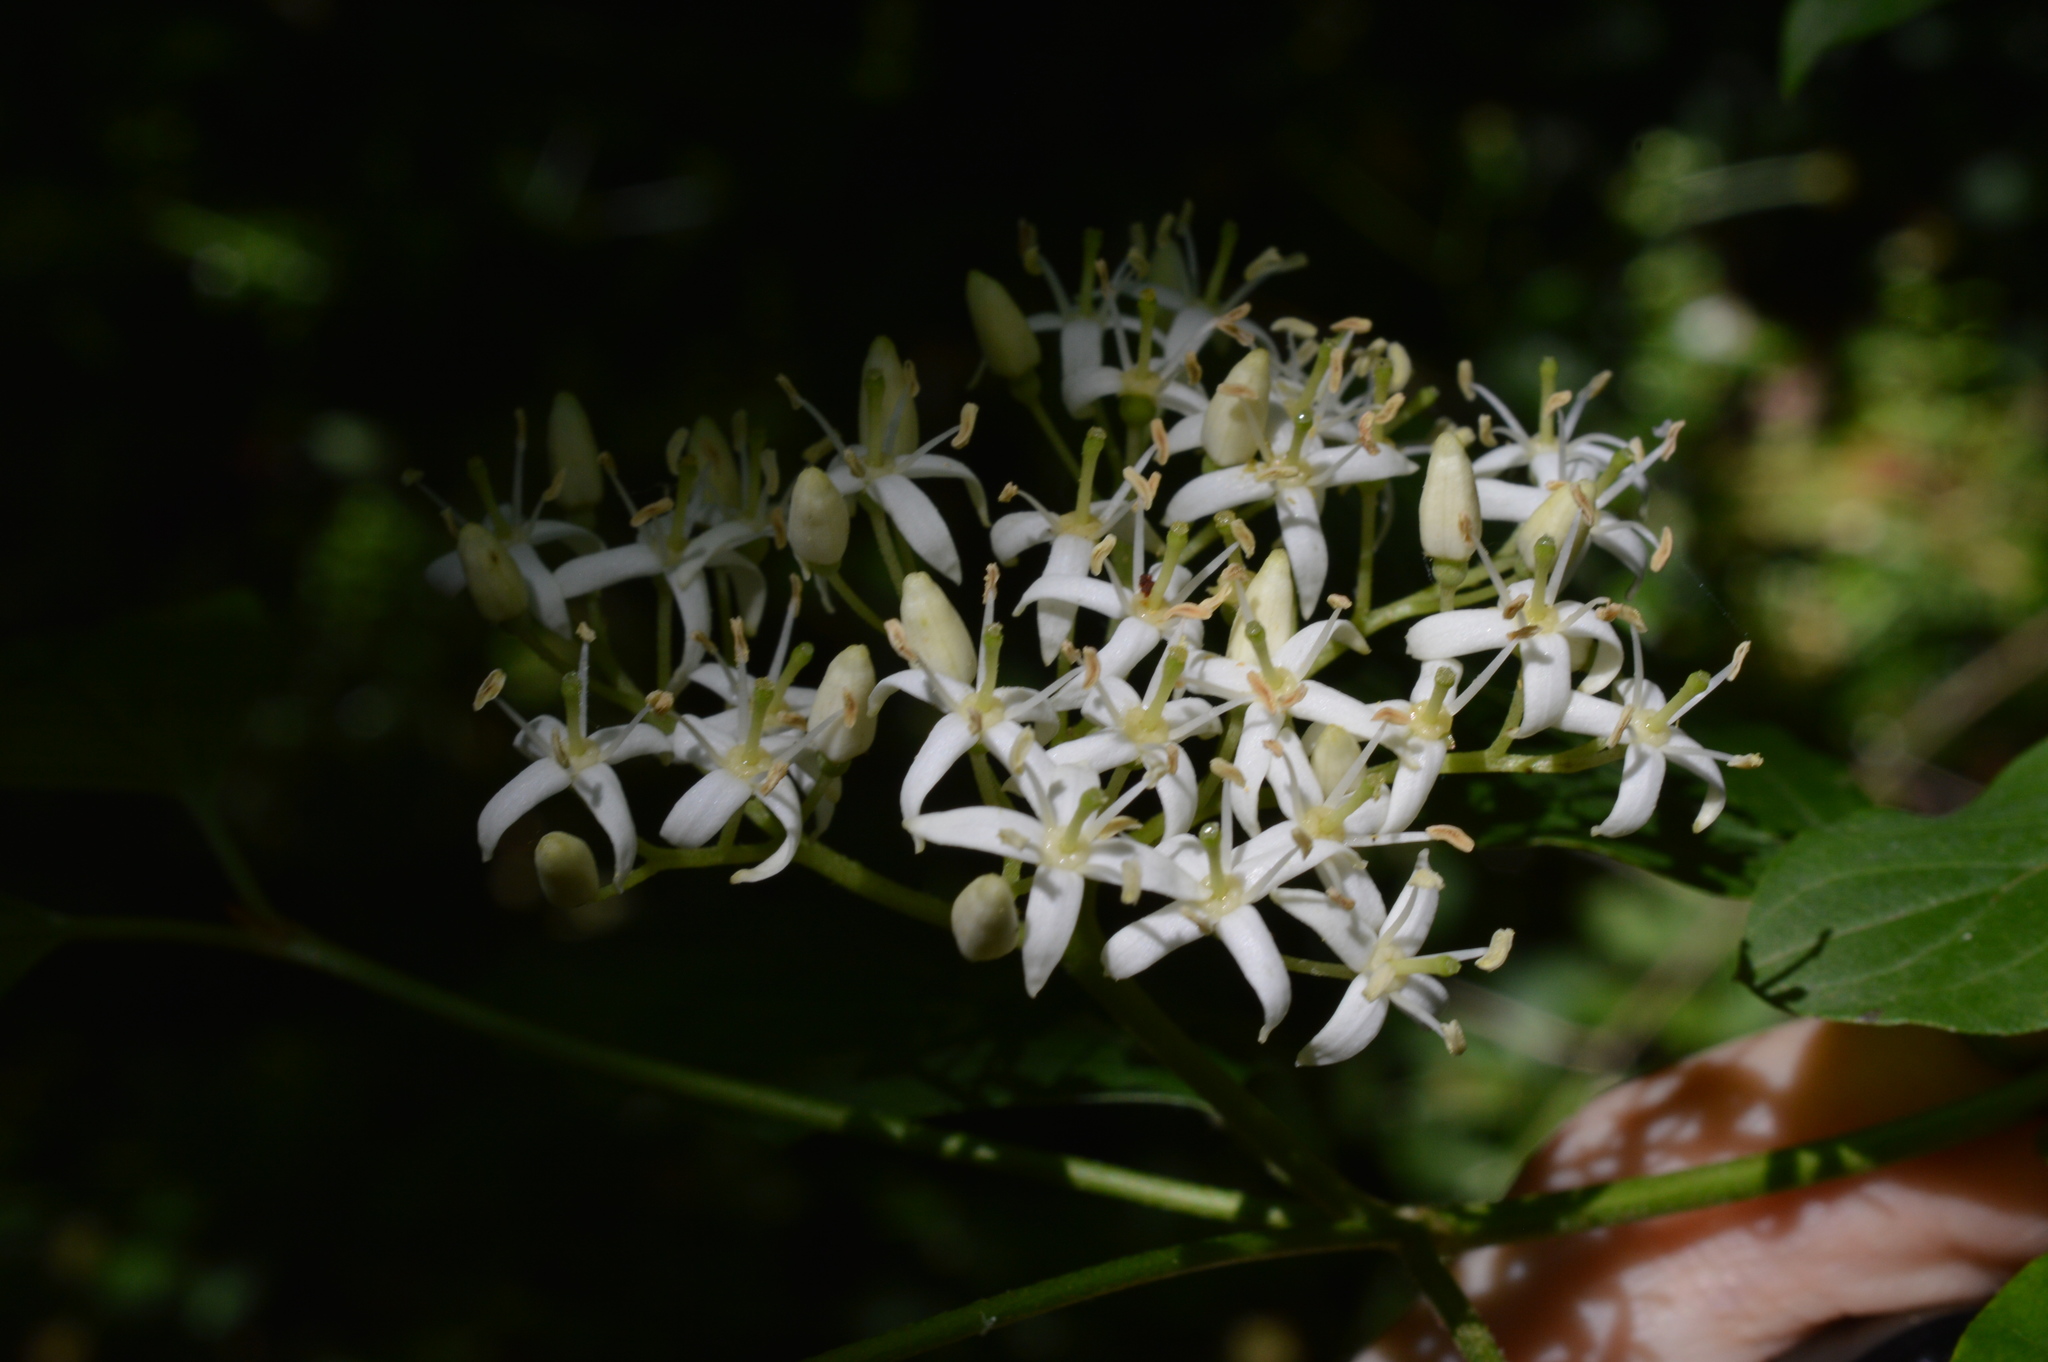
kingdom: Plantae
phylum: Tracheophyta
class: Magnoliopsida
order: Cornales
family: Cornaceae
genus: Cornus
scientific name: Cornus sanguinea
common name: Dogwood
